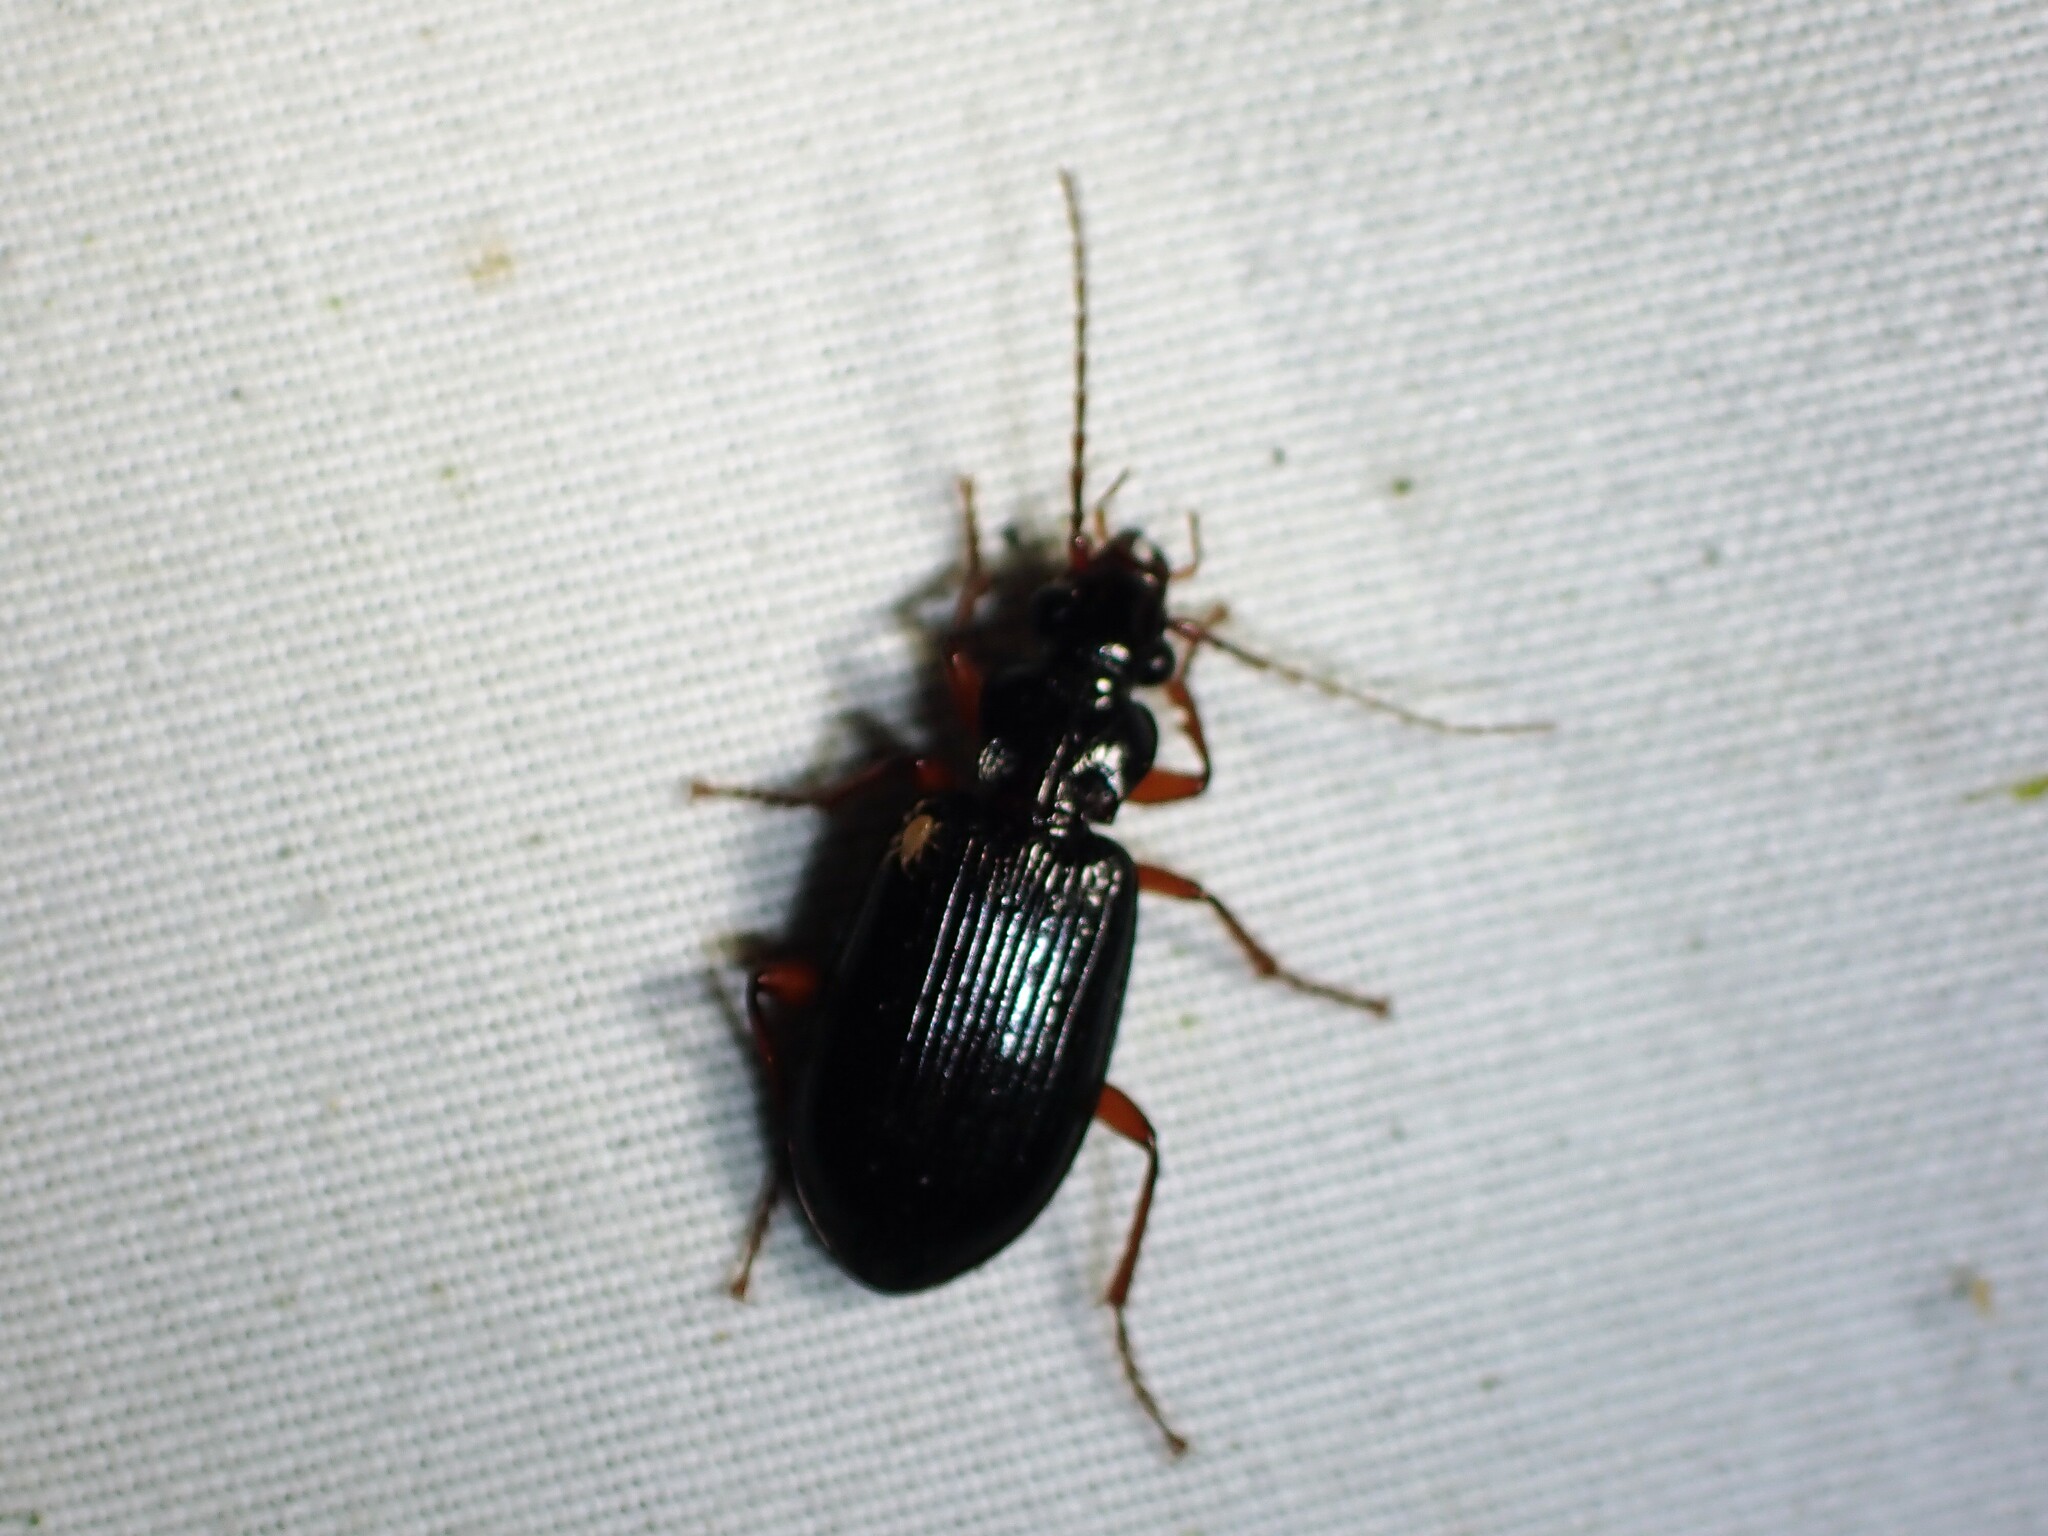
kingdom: Animalia
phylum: Arthropoda
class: Insecta
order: Coleoptera
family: Carabidae
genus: Platypatrobus
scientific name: Platypatrobus lacustris
